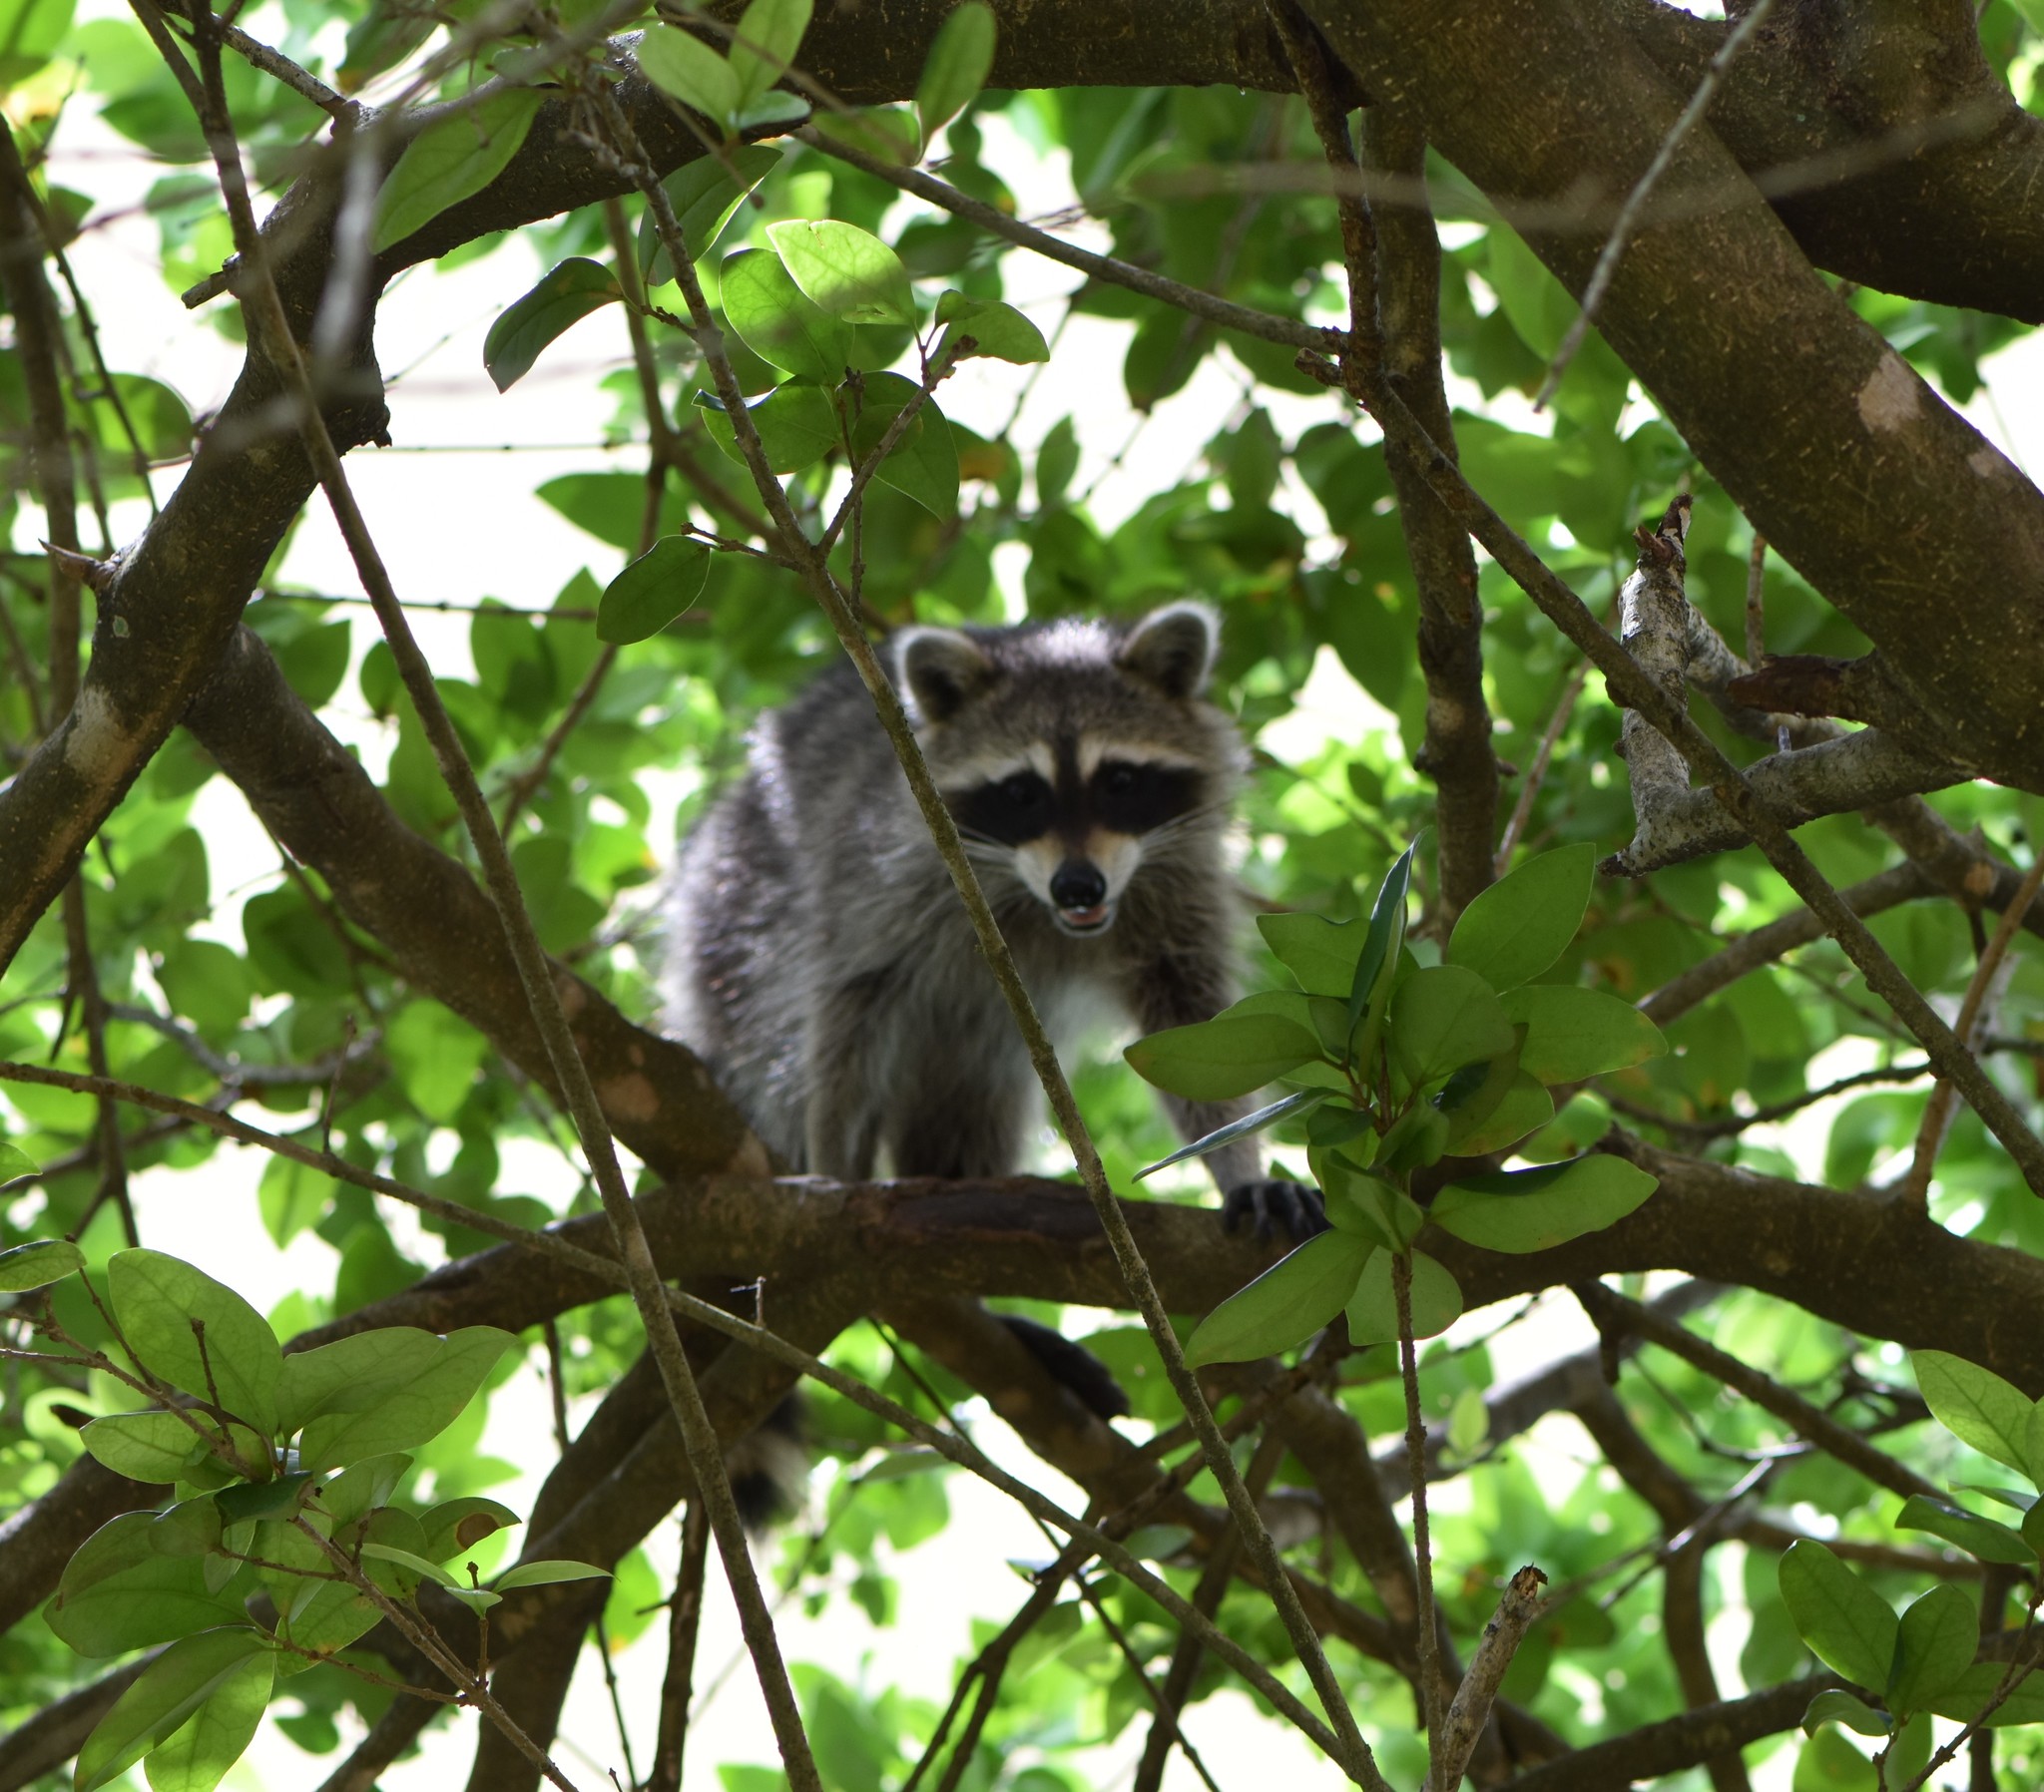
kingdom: Animalia
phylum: Chordata
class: Mammalia
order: Carnivora
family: Procyonidae
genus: Procyon
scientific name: Procyon lotor
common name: Raccoon
